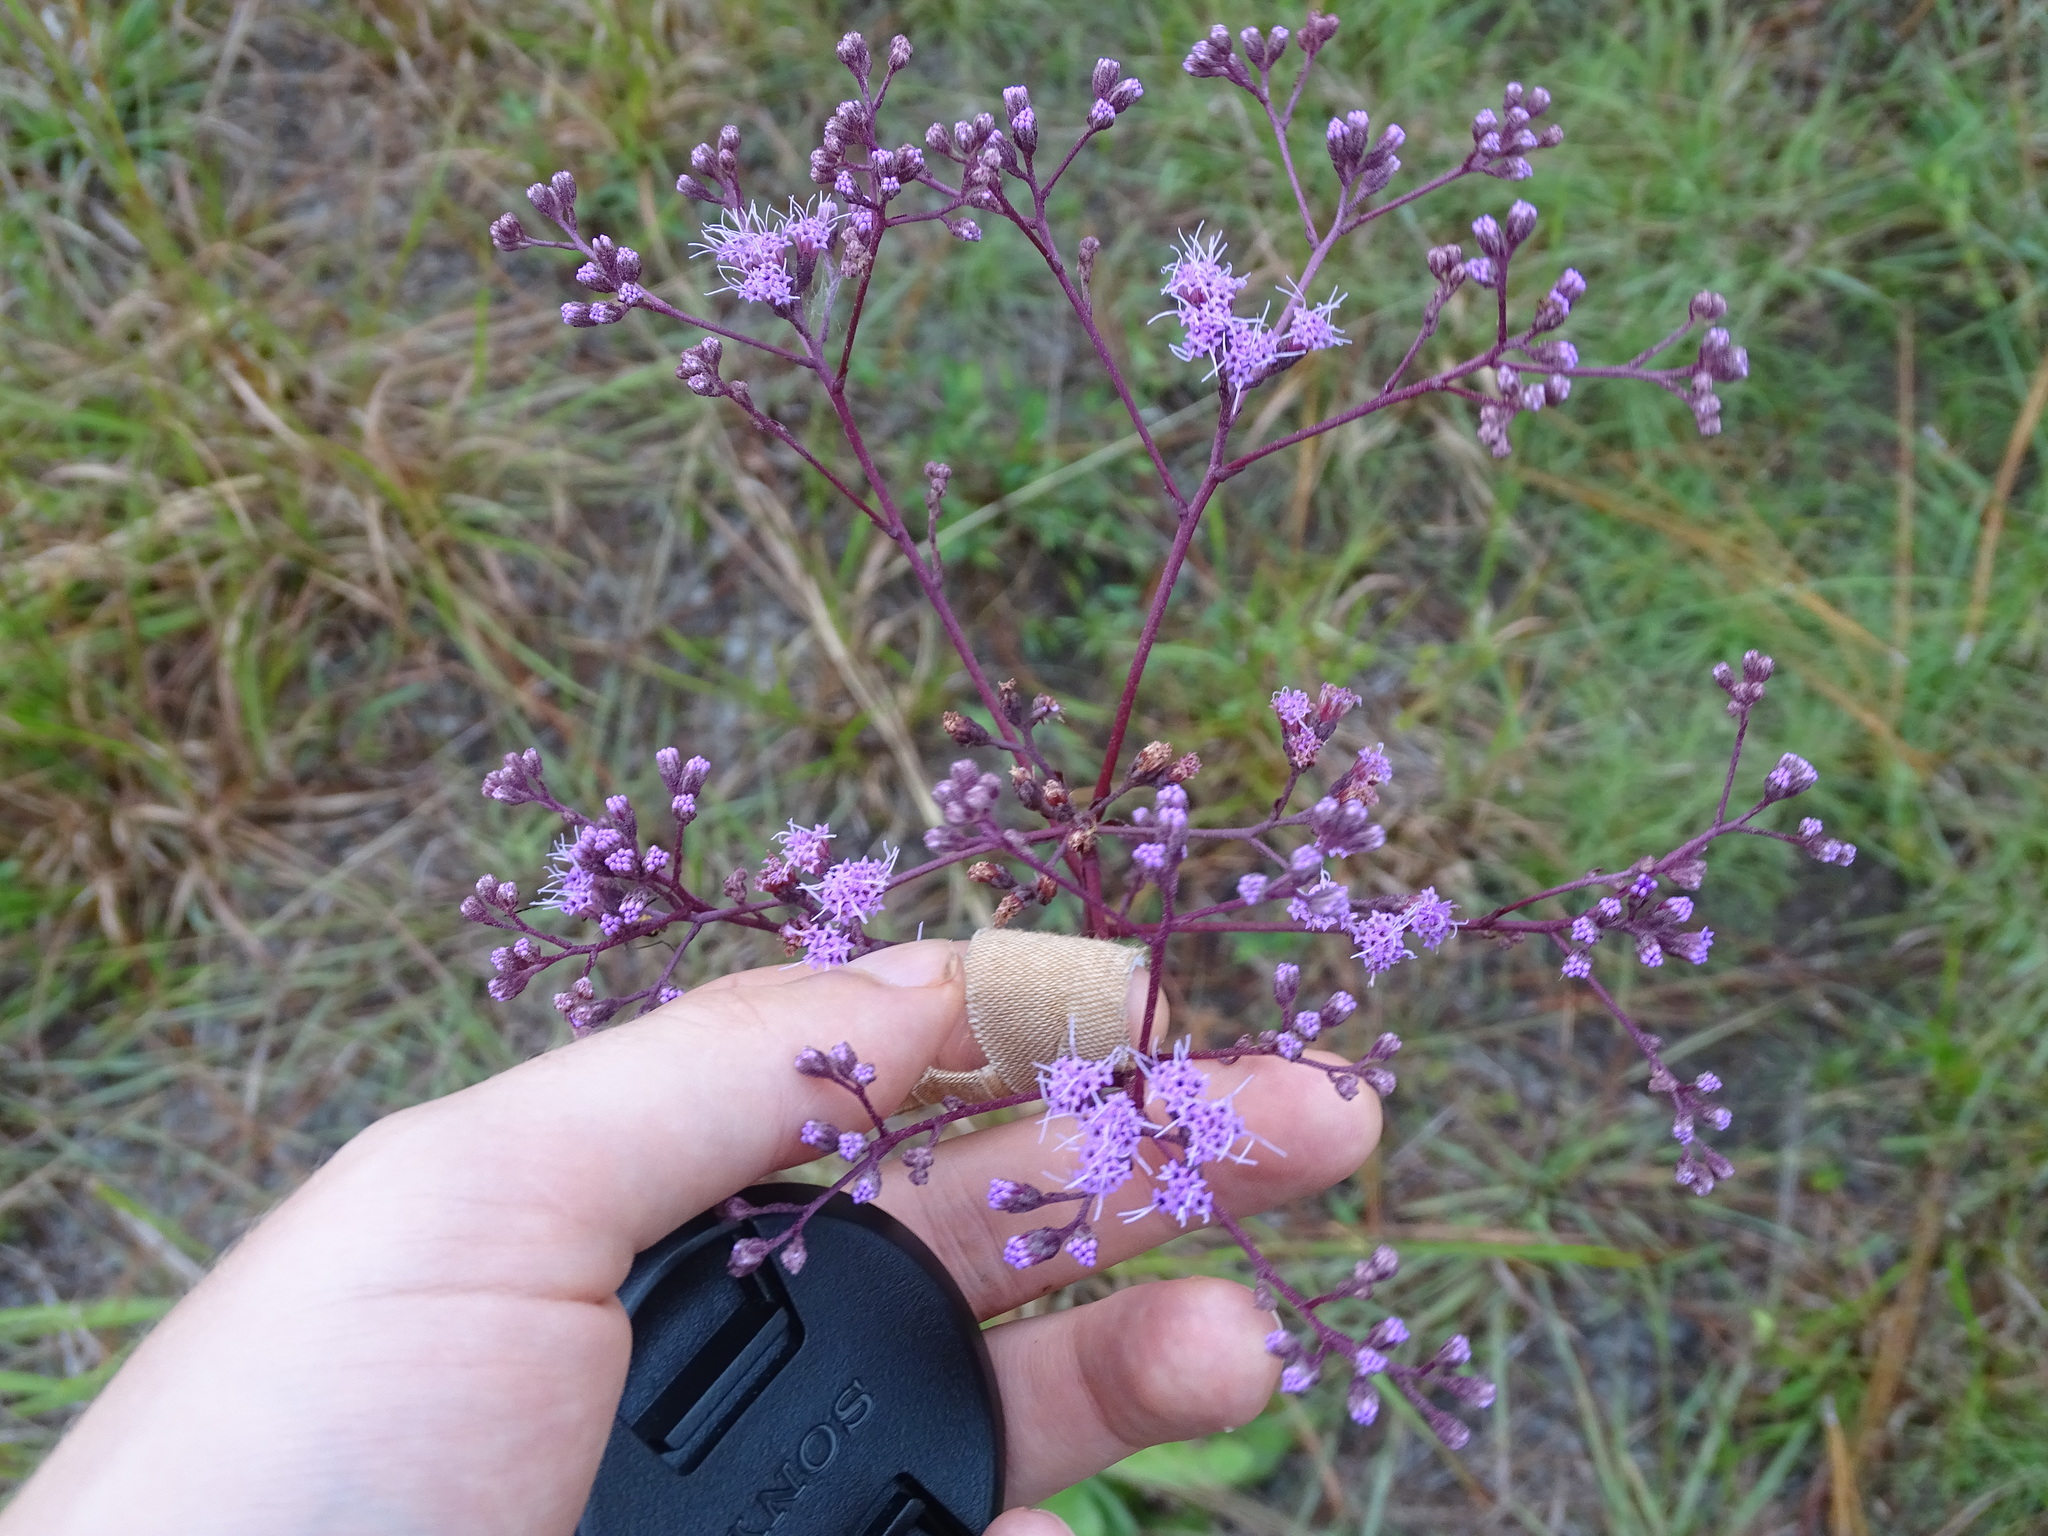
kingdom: Plantae
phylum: Tracheophyta
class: Magnoliopsida
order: Asterales
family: Asteraceae
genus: Carphephorus
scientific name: Carphephorus odoratissimus
